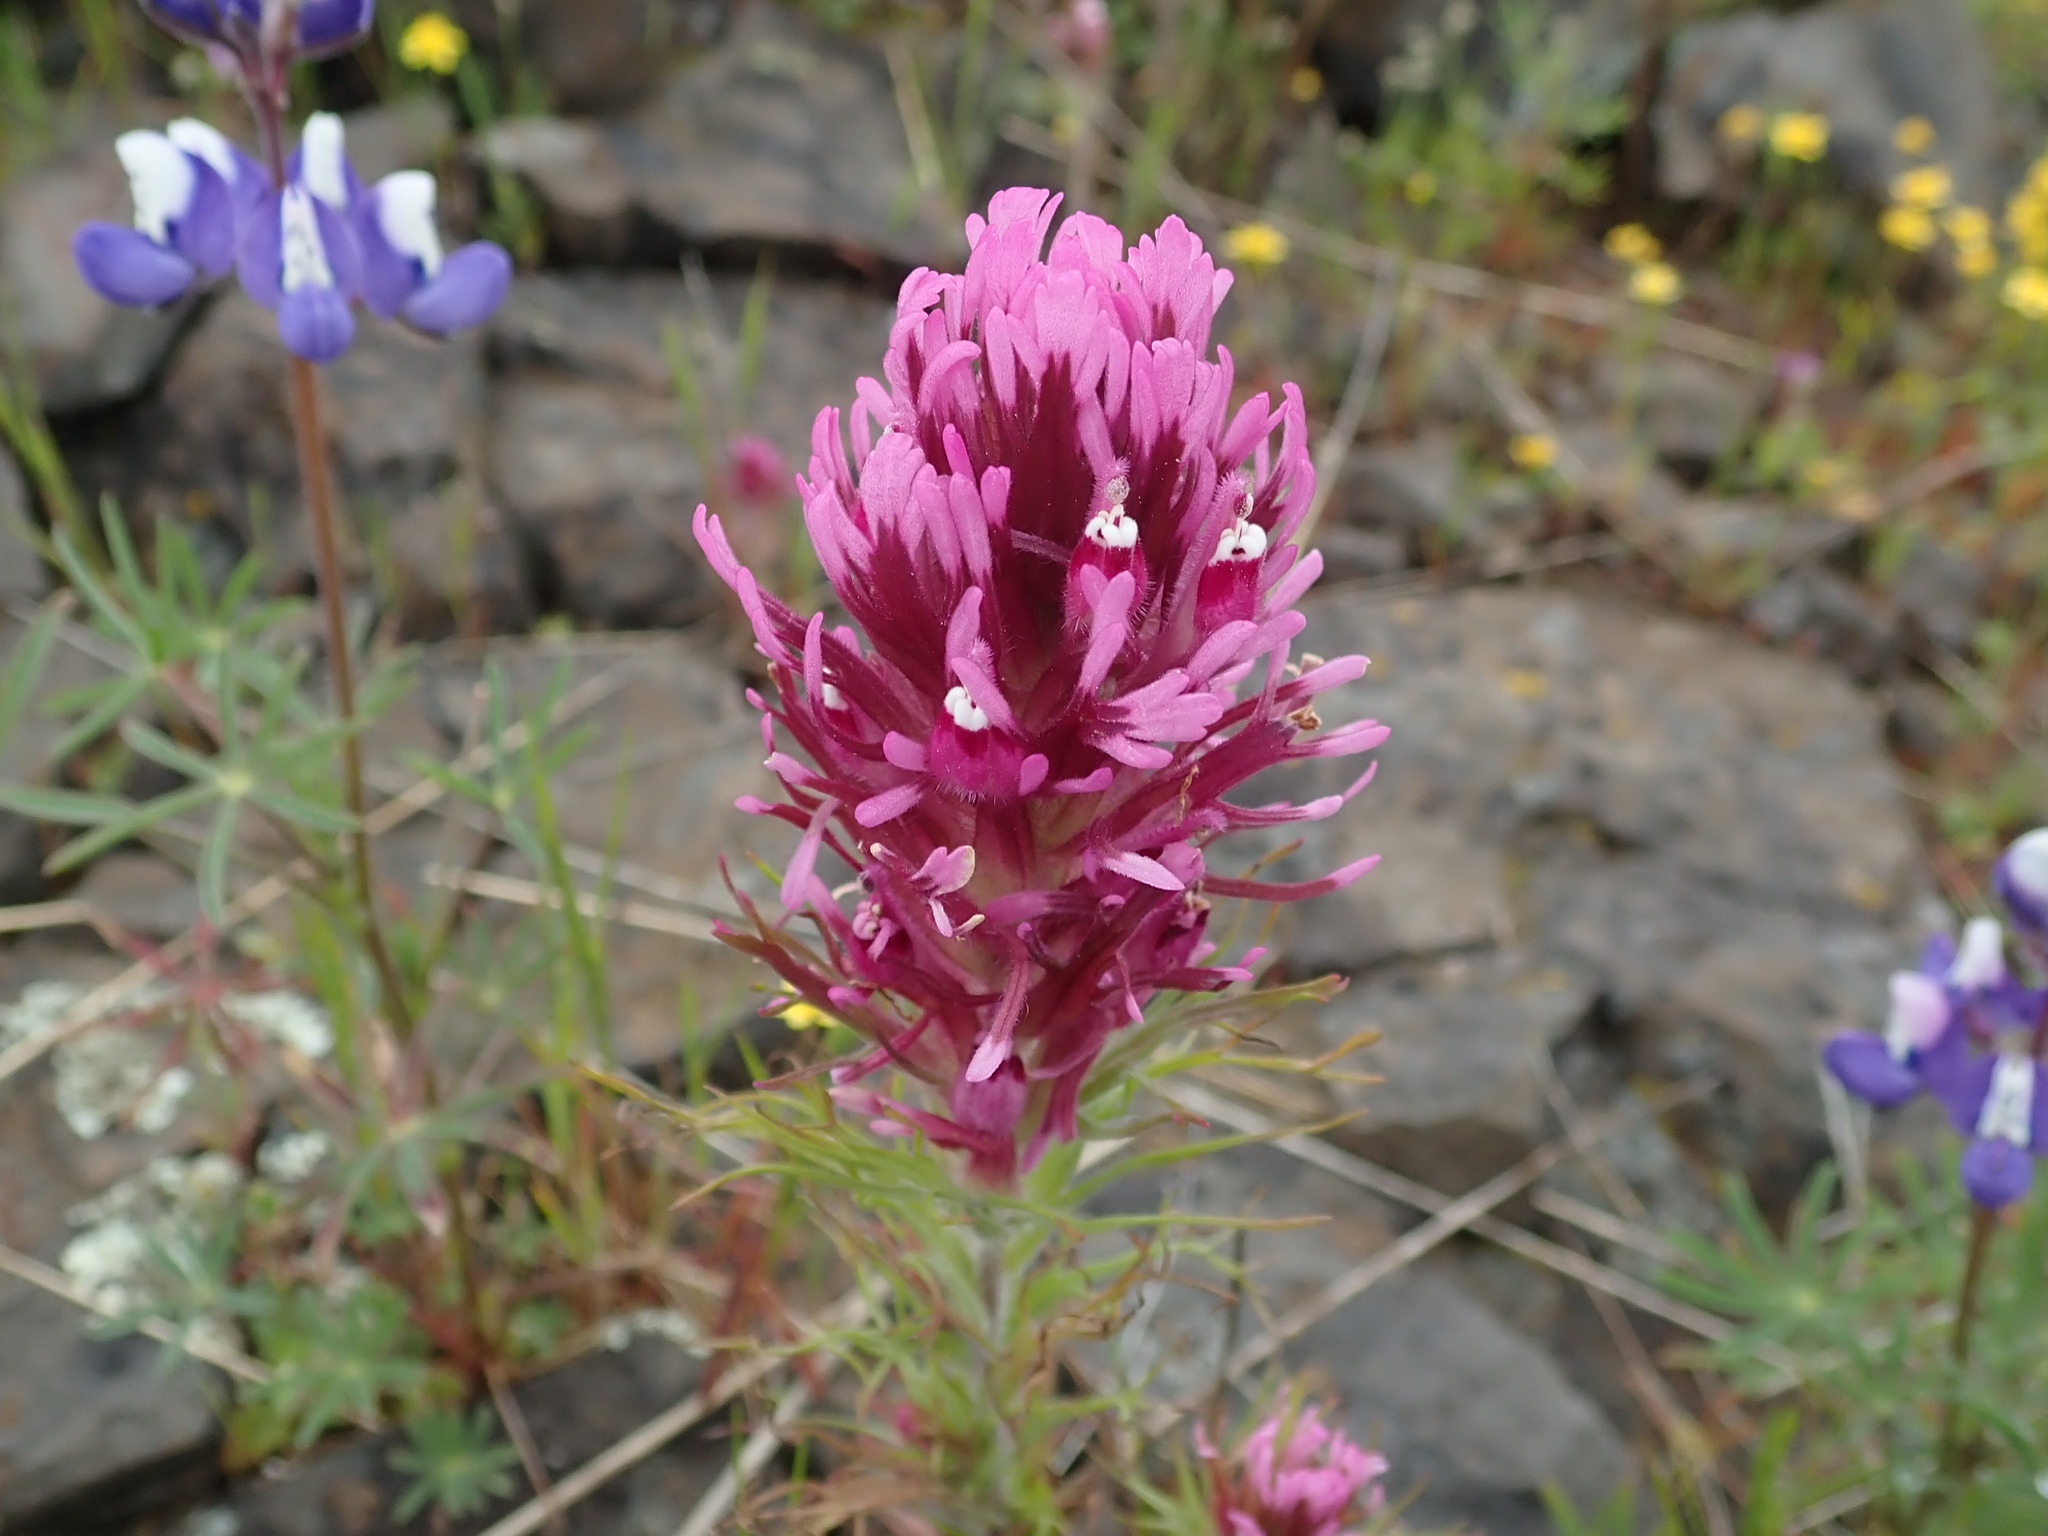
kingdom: Plantae
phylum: Tracheophyta
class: Magnoliopsida
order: Lamiales
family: Orobanchaceae
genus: Castilleja
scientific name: Castilleja exserta
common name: Purple owl-clover
